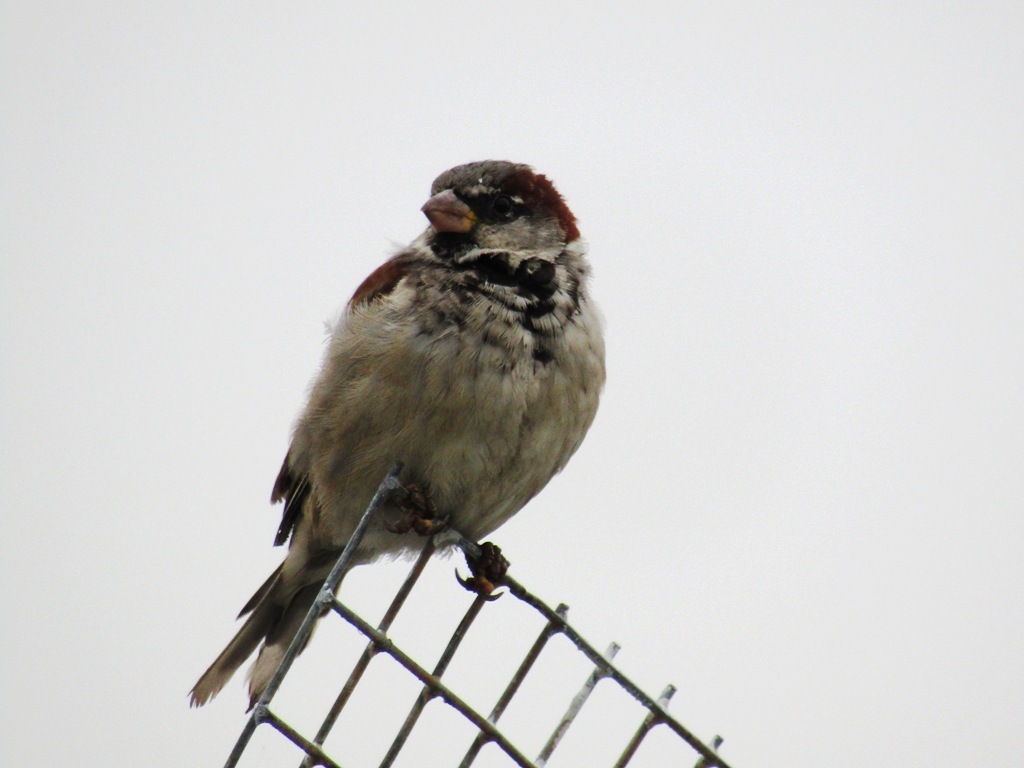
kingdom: Animalia
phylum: Chordata
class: Aves
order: Passeriformes
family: Passeridae
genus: Passer
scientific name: Passer domesticus
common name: House sparrow
